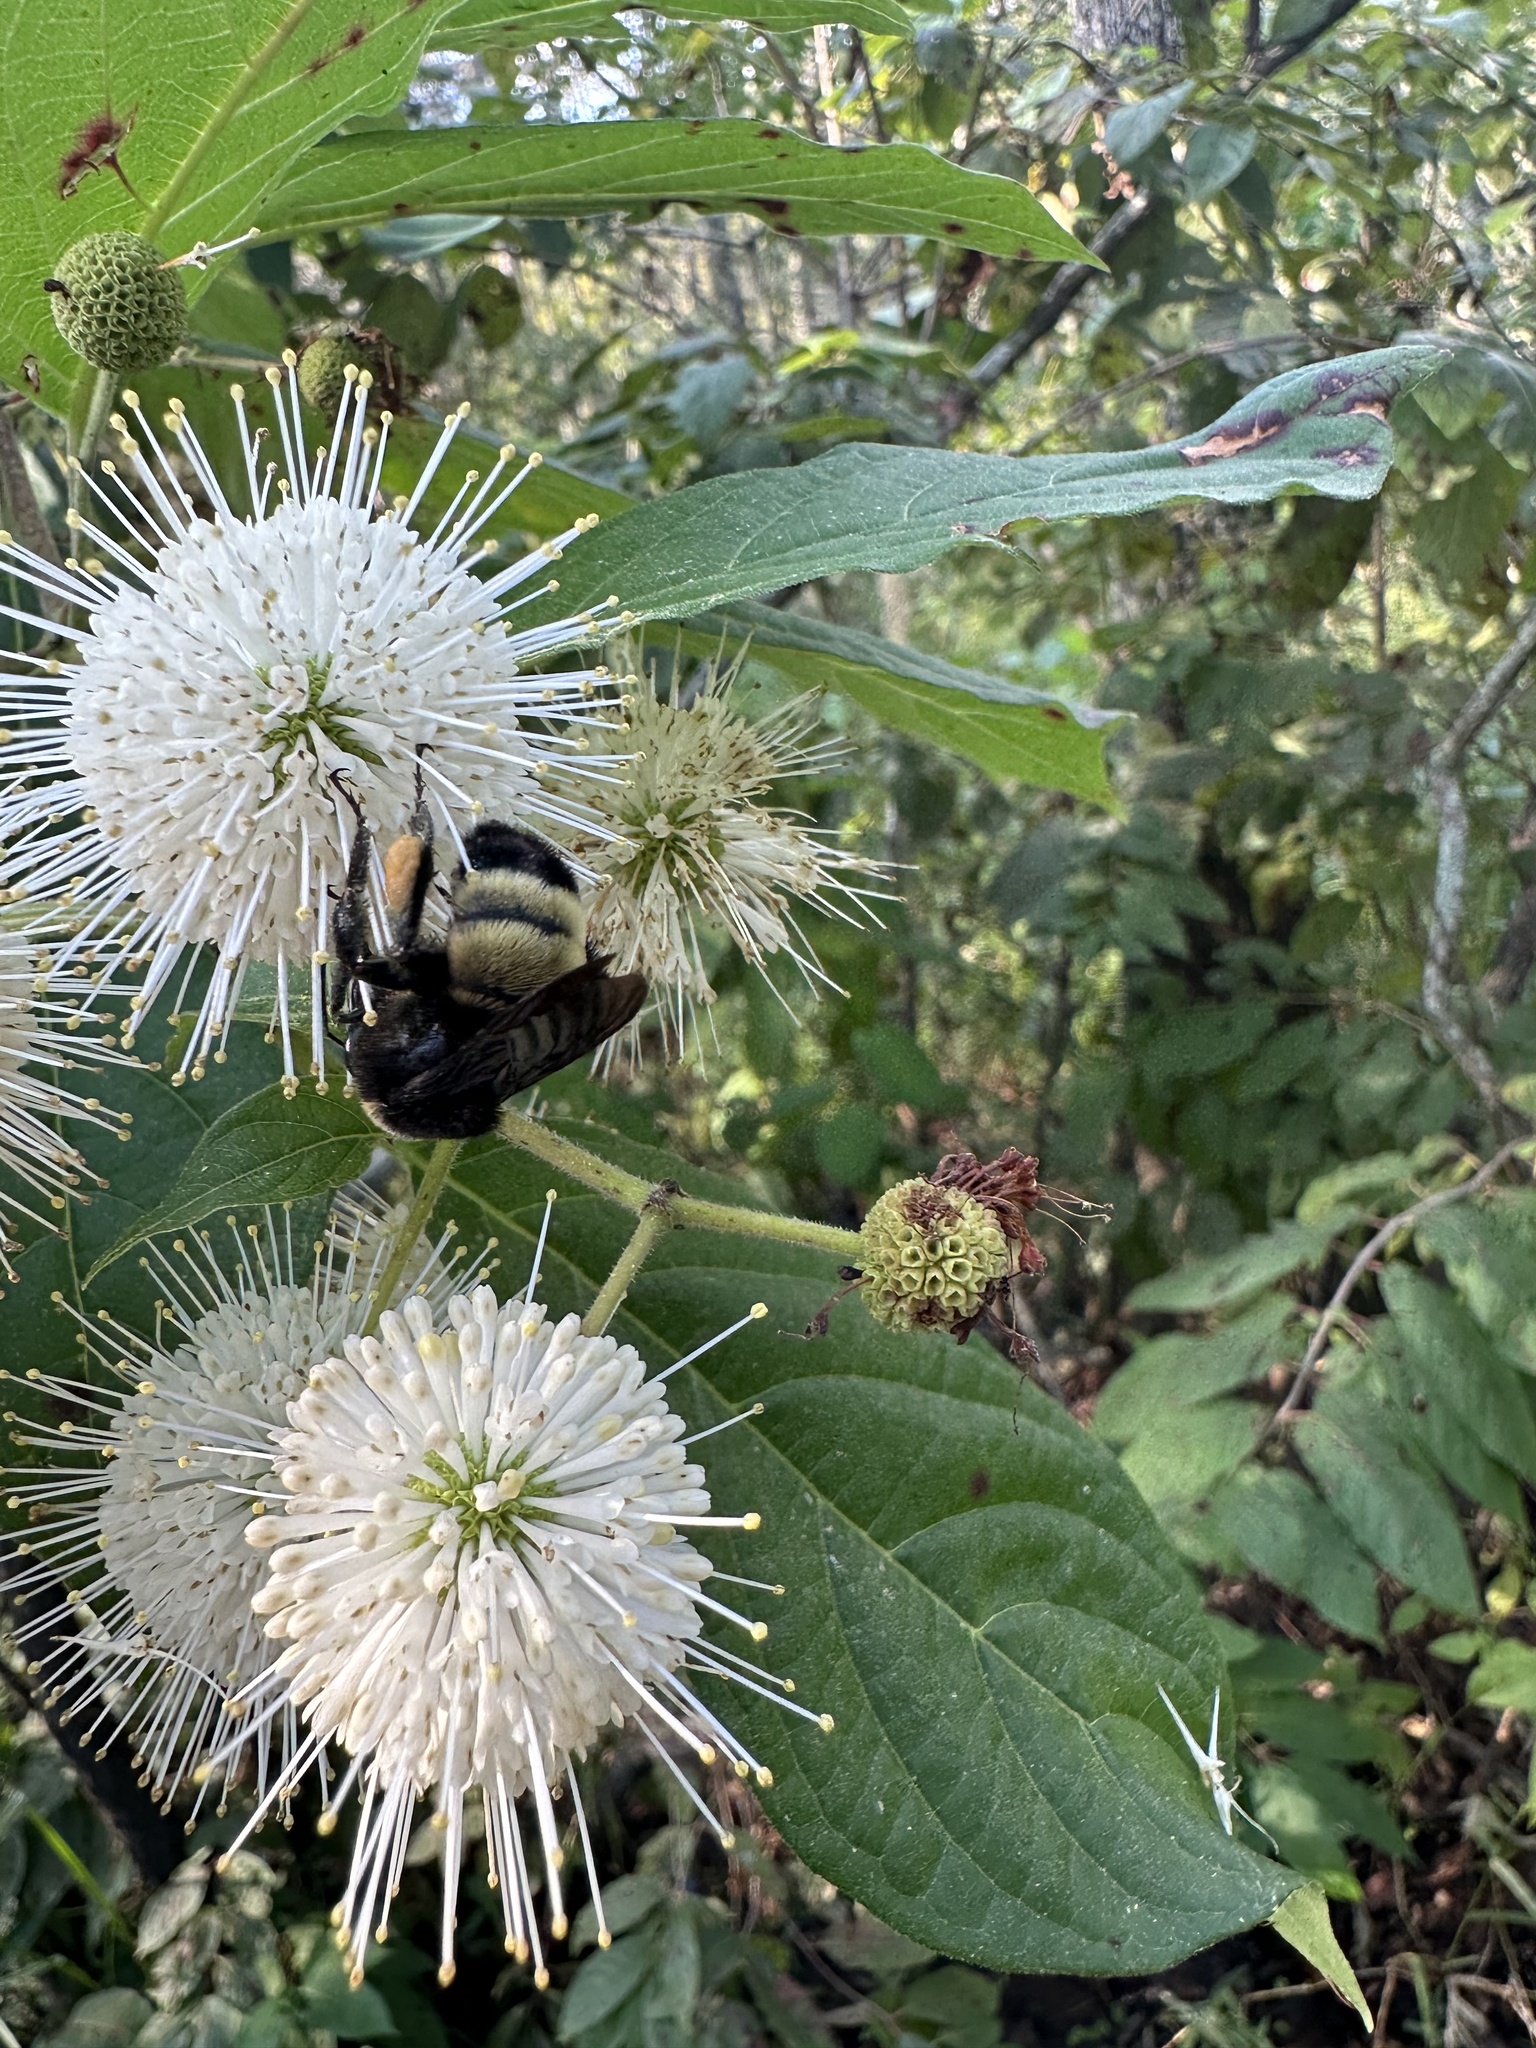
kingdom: Animalia
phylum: Arthropoda
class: Insecta
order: Hymenoptera
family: Apidae
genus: Bombus
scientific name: Bombus pensylvanicus
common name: Bumble bee
